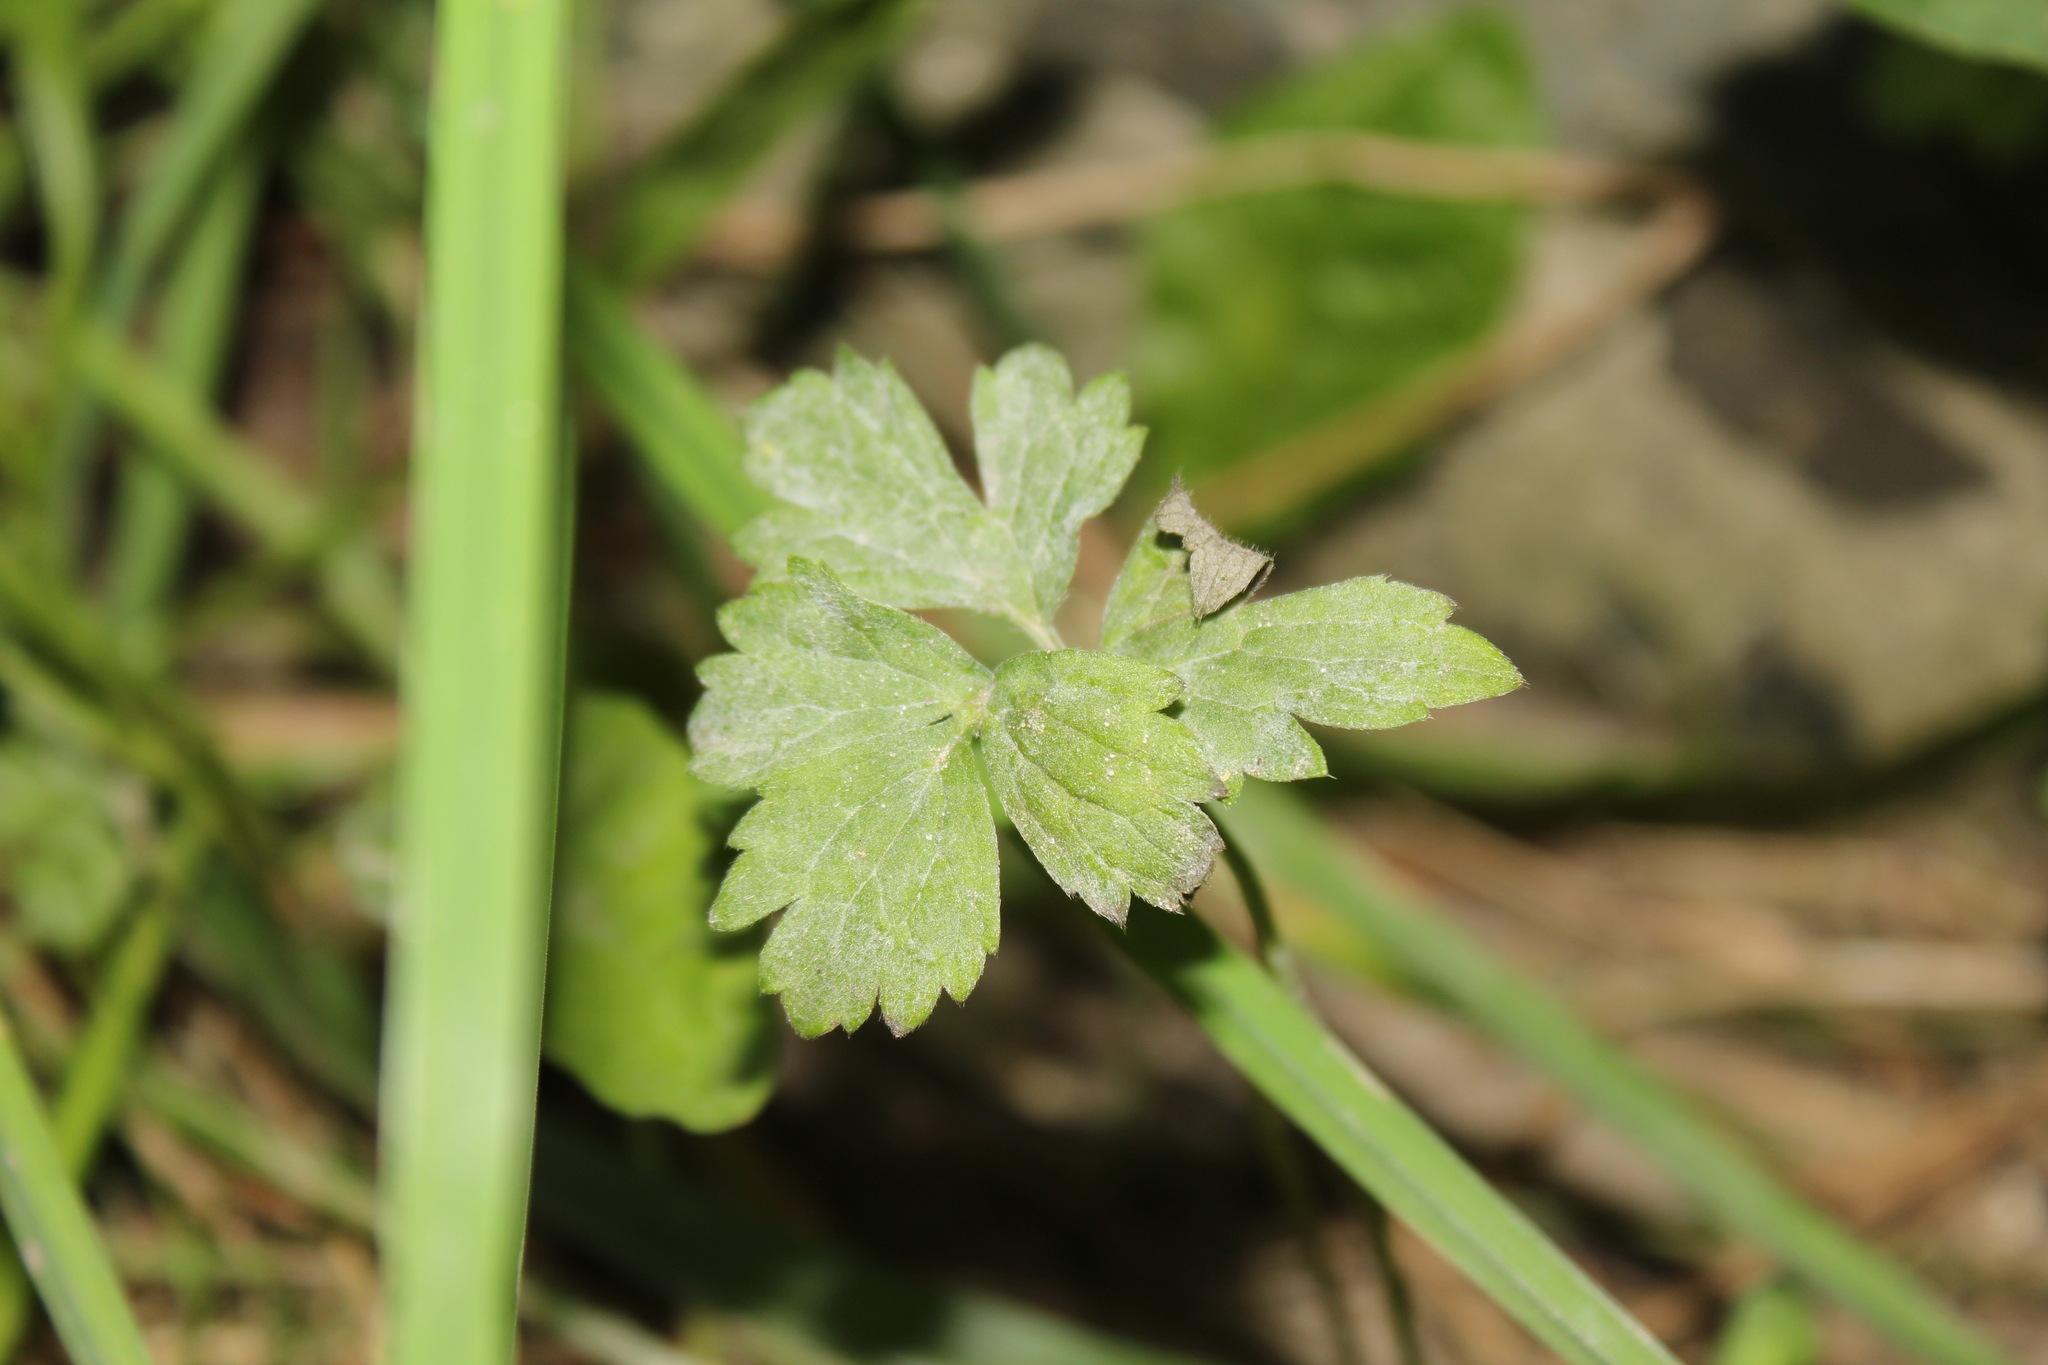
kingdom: Fungi
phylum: Ascomycota
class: Leotiomycetes
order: Helotiales
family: Erysiphaceae
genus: Erysiphe
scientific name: Erysiphe aquilegiae
